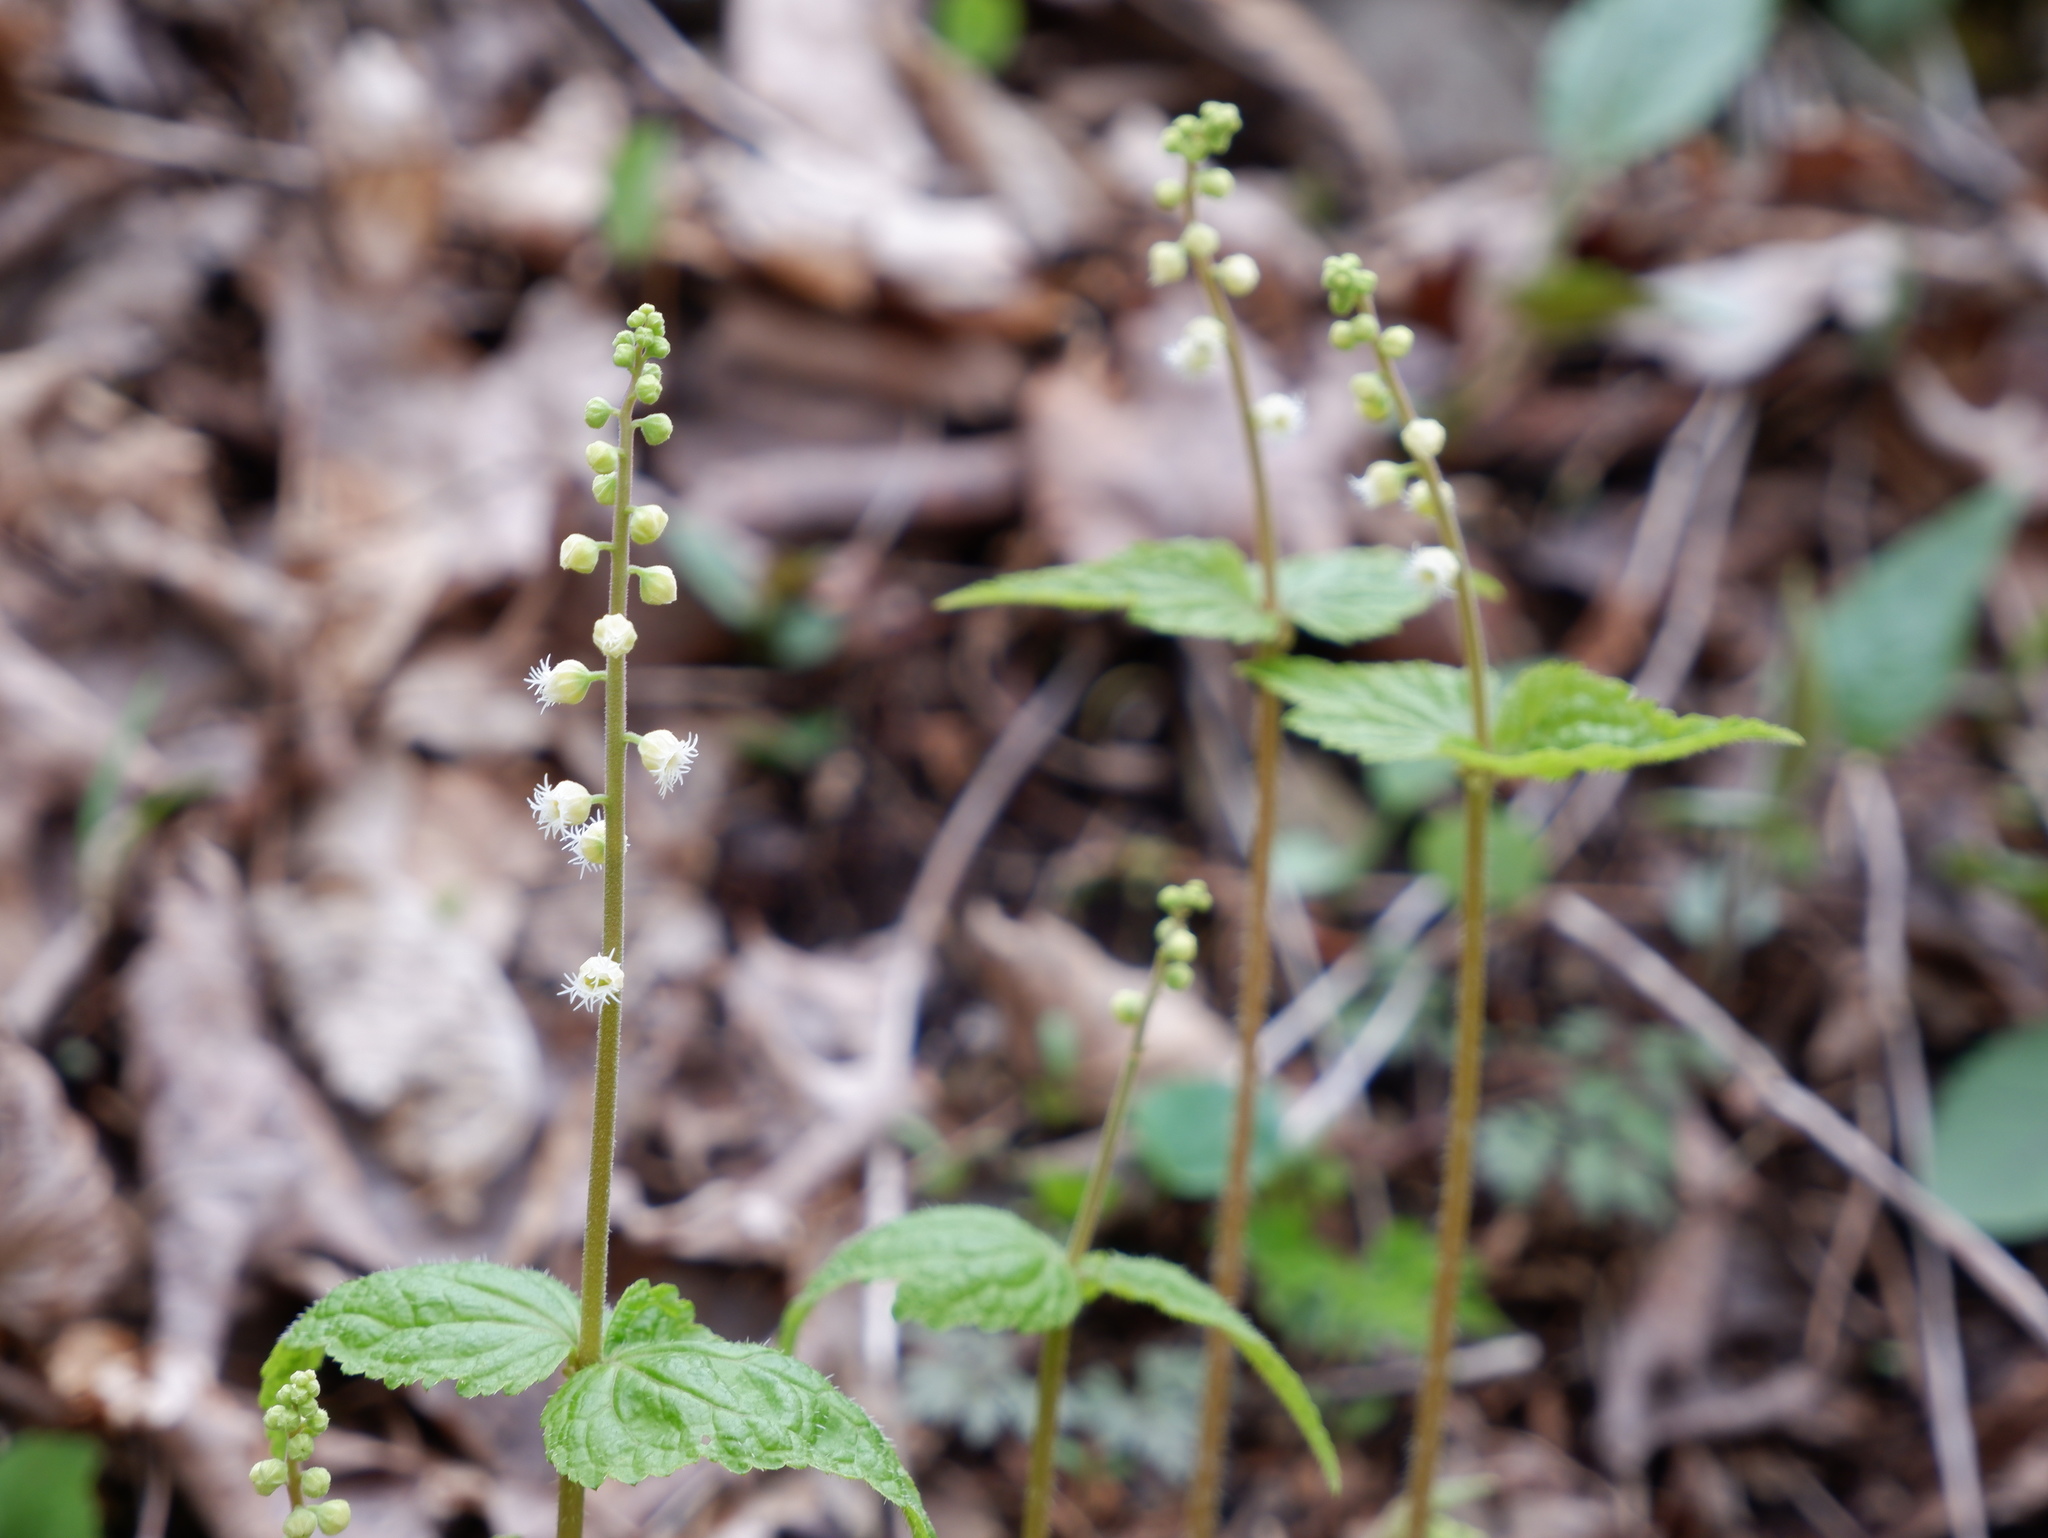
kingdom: Plantae
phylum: Tracheophyta
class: Magnoliopsida
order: Saxifragales
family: Saxifragaceae
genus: Mitella
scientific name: Mitella diphylla
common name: Coolwort
